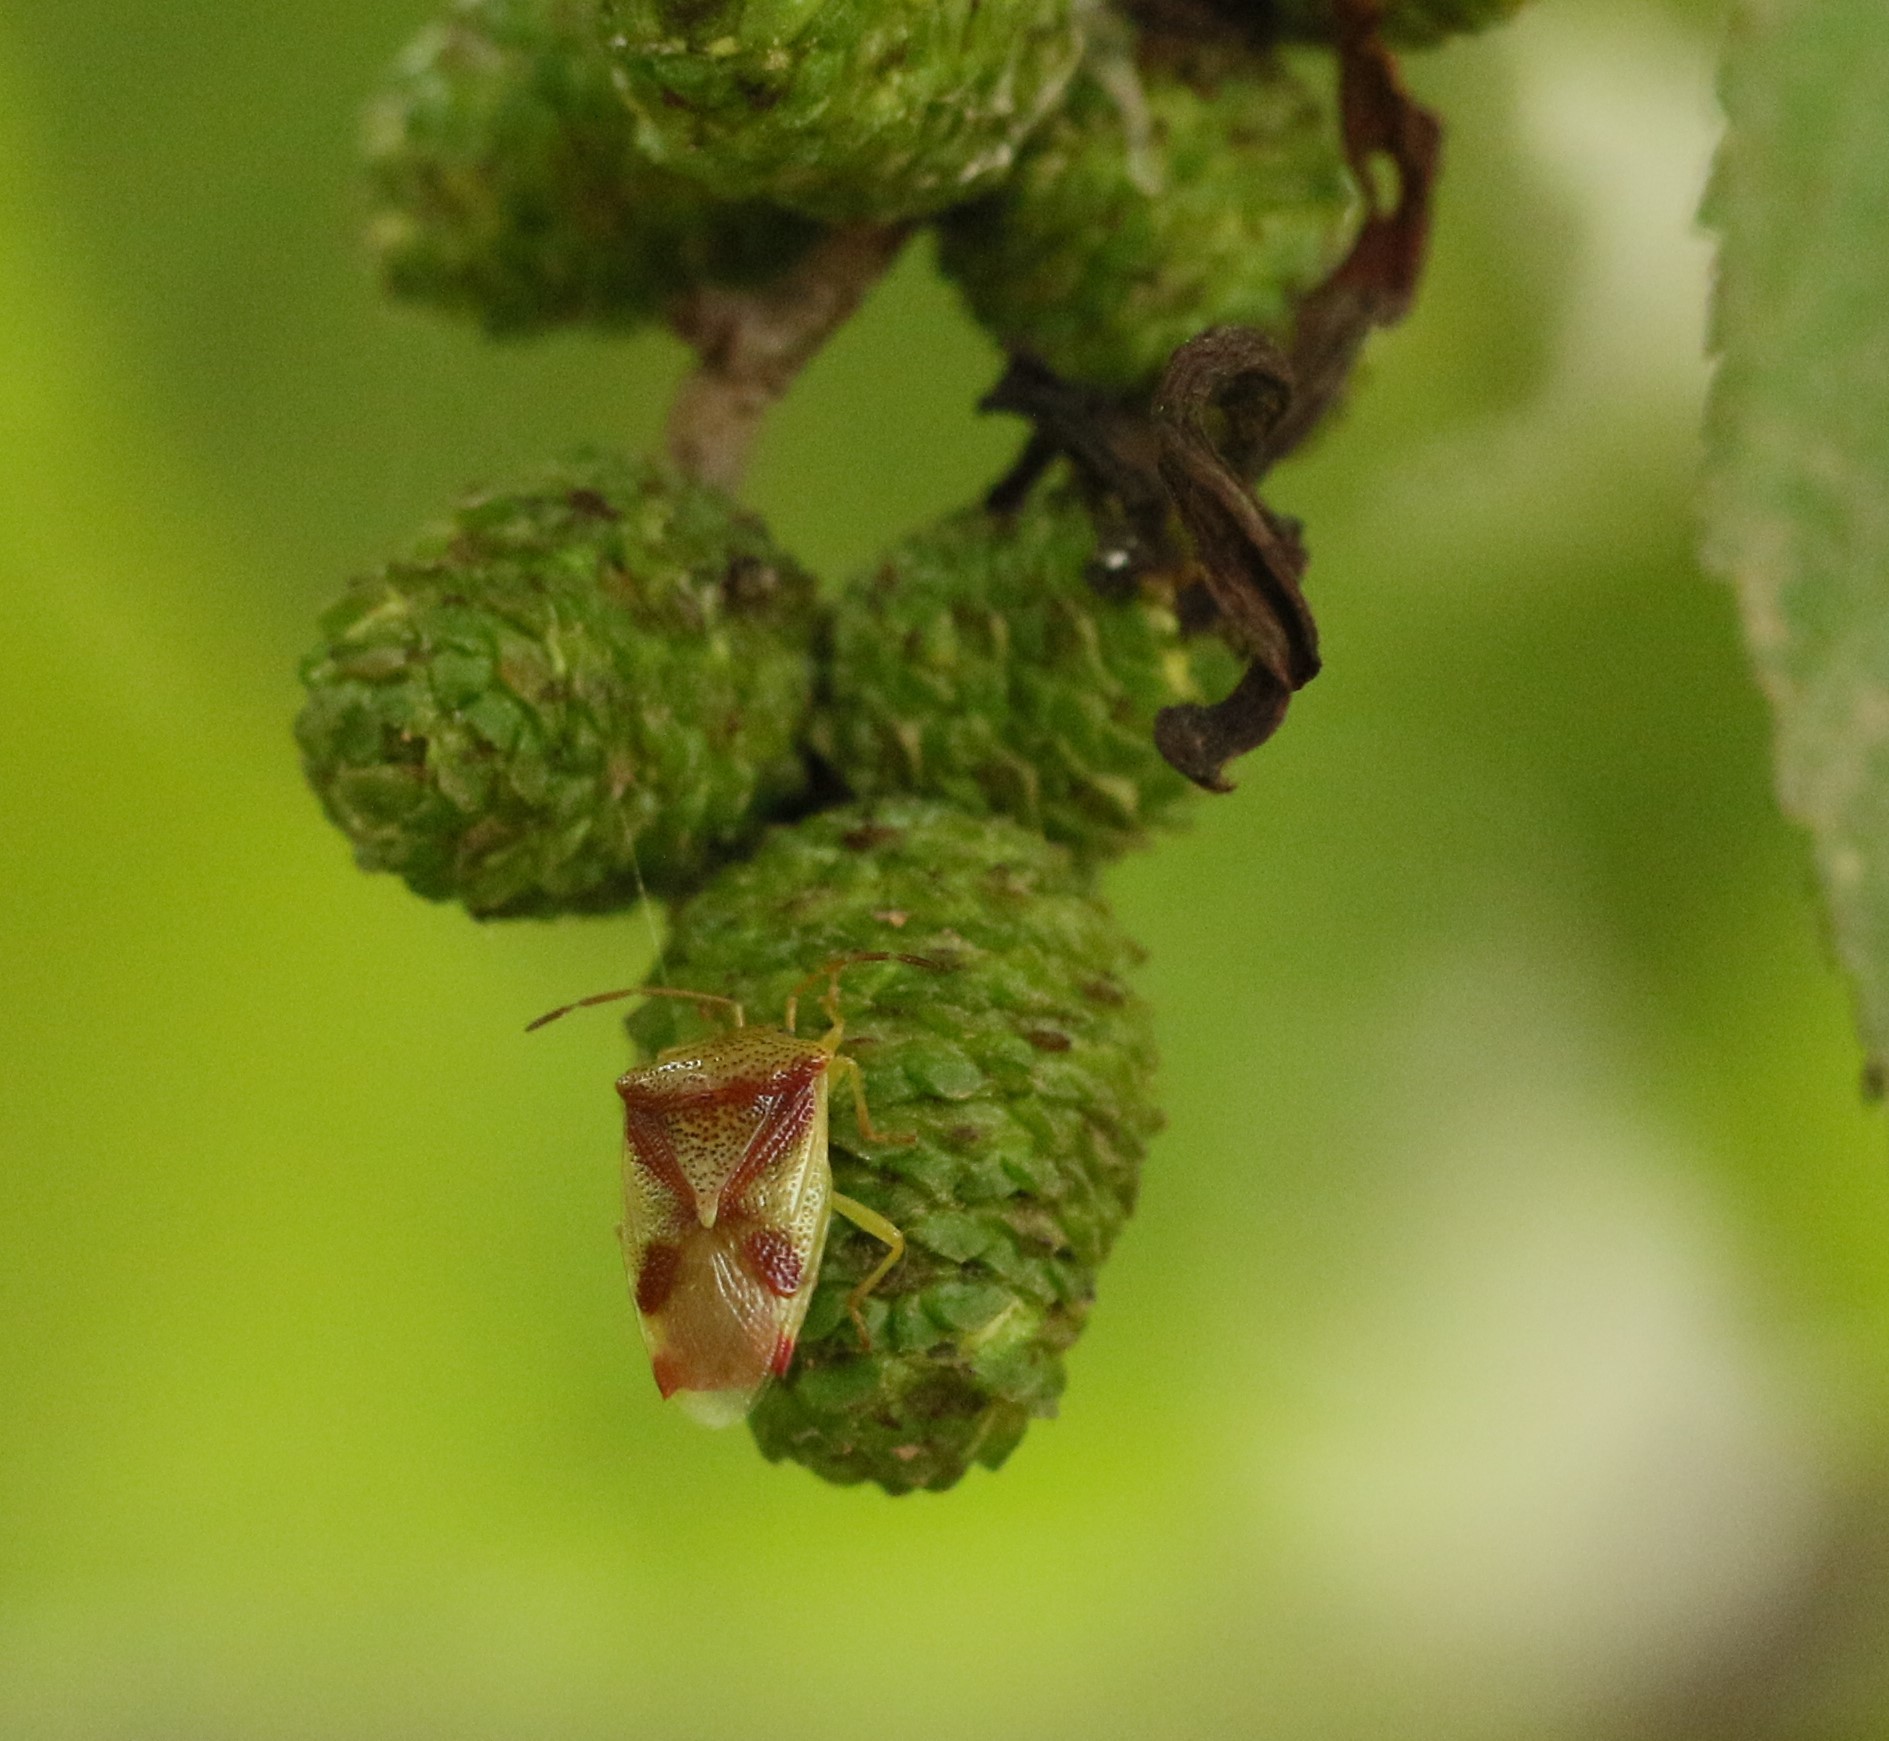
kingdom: Animalia
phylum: Arthropoda
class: Insecta
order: Hemiptera
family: Acanthosomatidae
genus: Elasmostethus
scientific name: Elasmostethus cruciatus
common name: Red-cross shield bug
